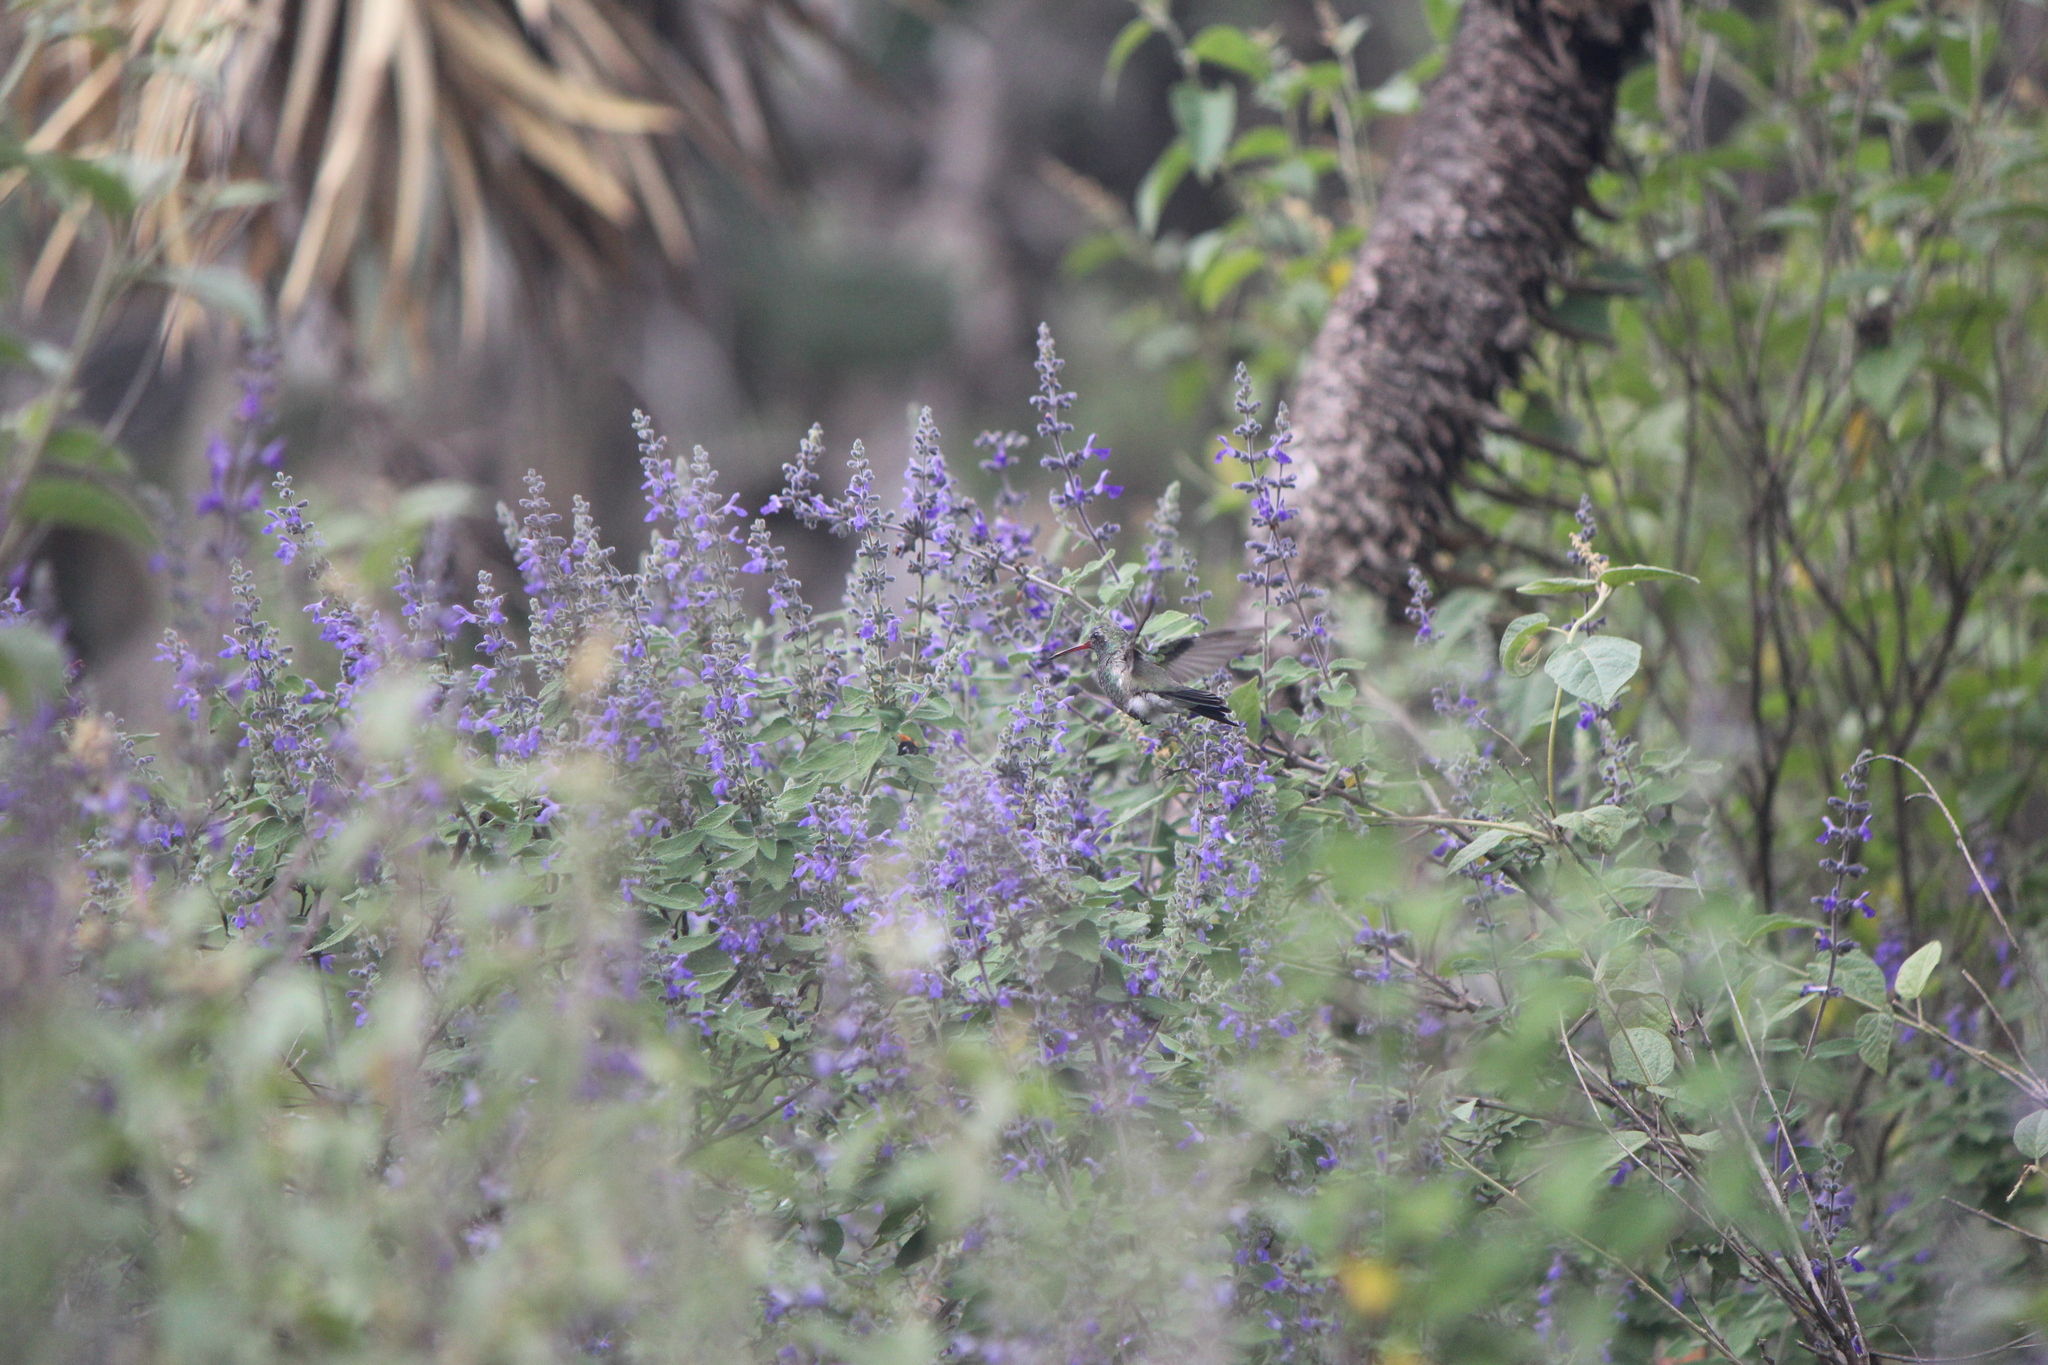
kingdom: Animalia
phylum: Chordata
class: Aves
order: Apodiformes
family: Trochilidae
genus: Cynanthus
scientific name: Cynanthus latirostris
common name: Broad-billed hummingbird
